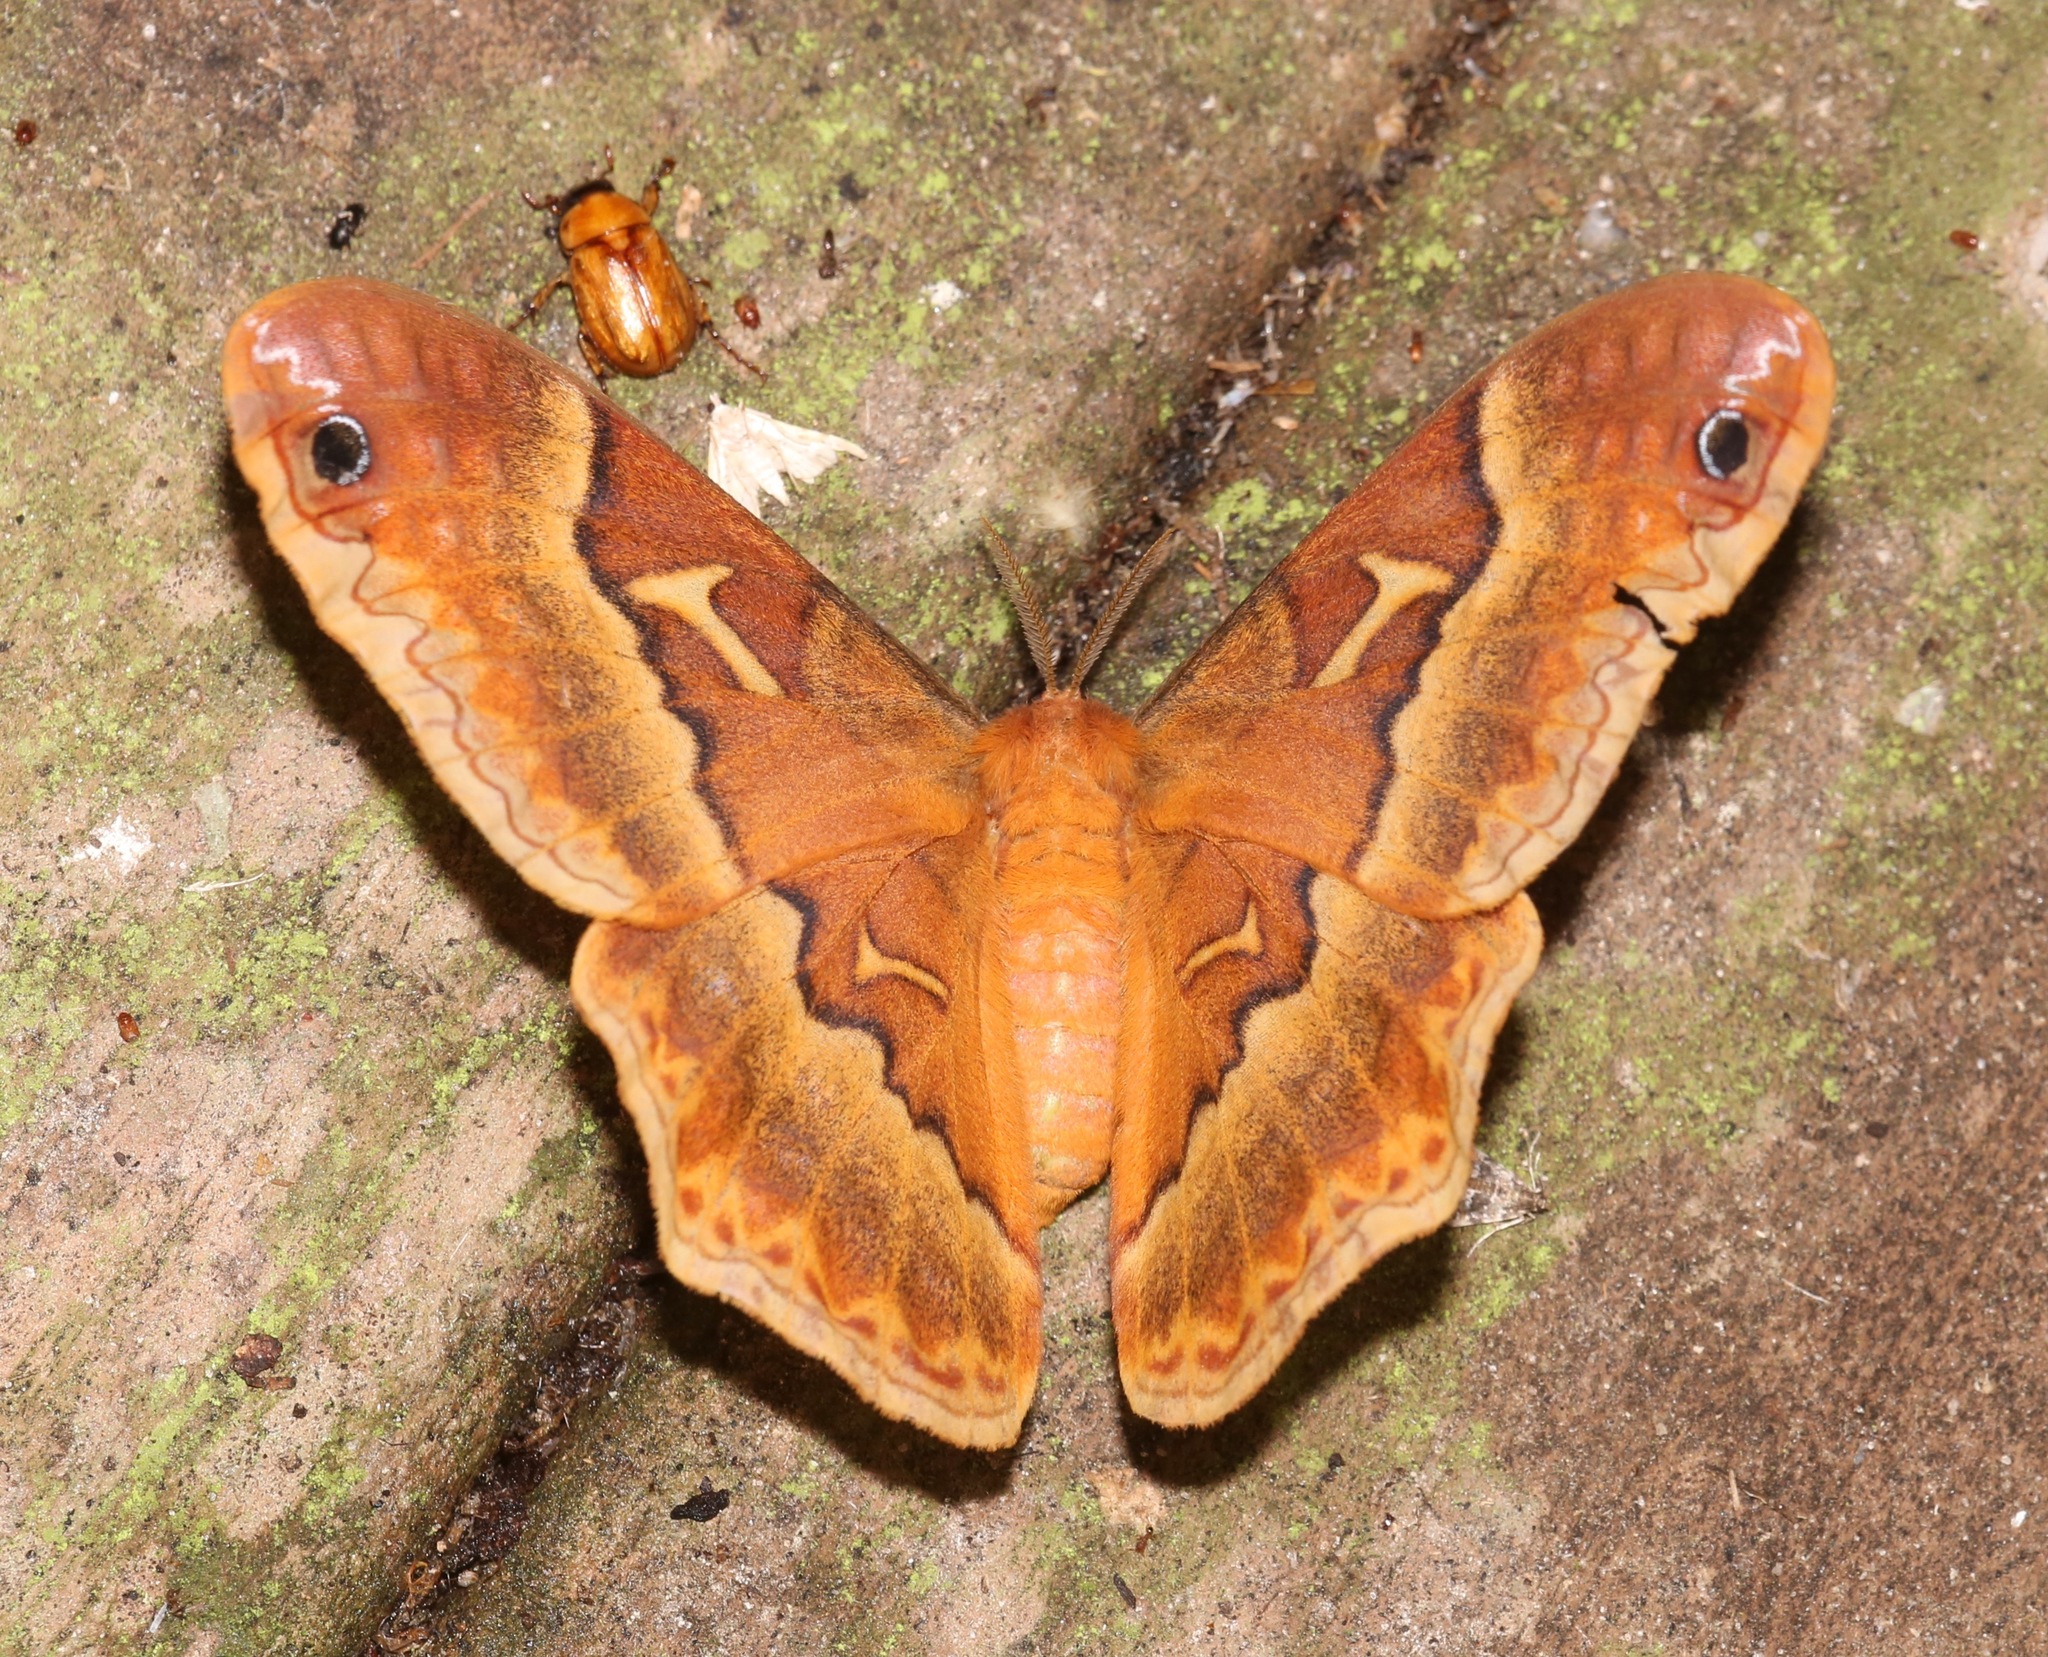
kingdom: Animalia
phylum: Arthropoda
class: Insecta
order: Lepidoptera
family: Saturniidae
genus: Callosamia
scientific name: Callosamia securifera
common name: Sweetbay silkmoth
